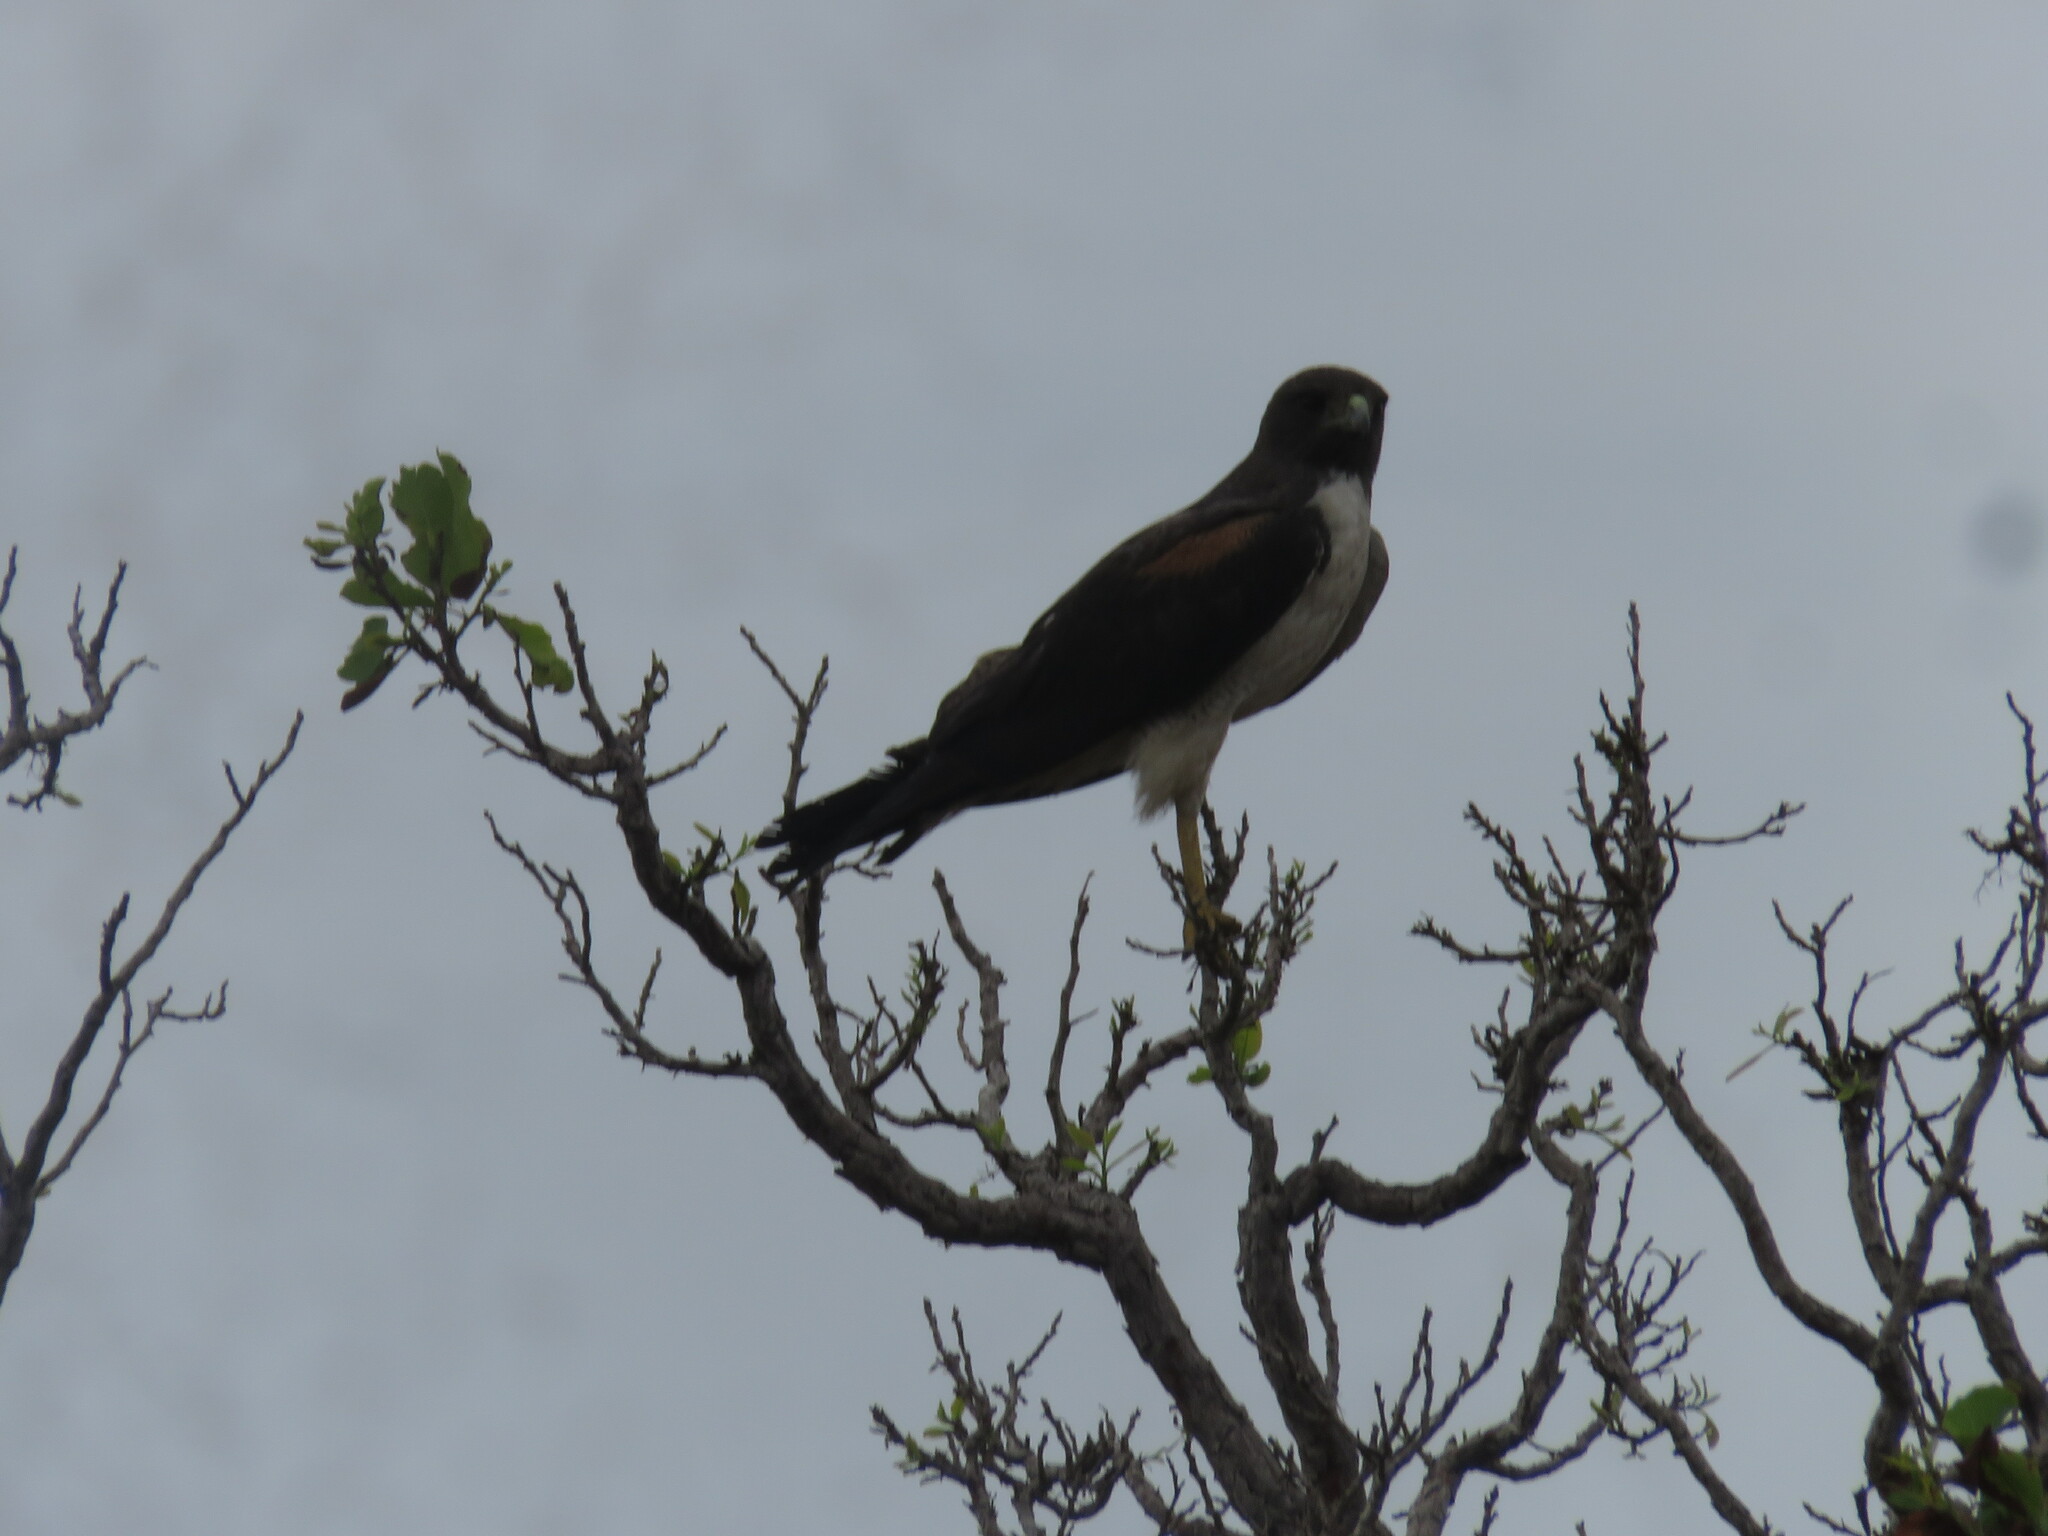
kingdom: Animalia
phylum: Chordata
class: Aves
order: Accipitriformes
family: Accipitridae
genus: Buteo
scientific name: Buteo albicaudatus
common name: White-tailed hawk
